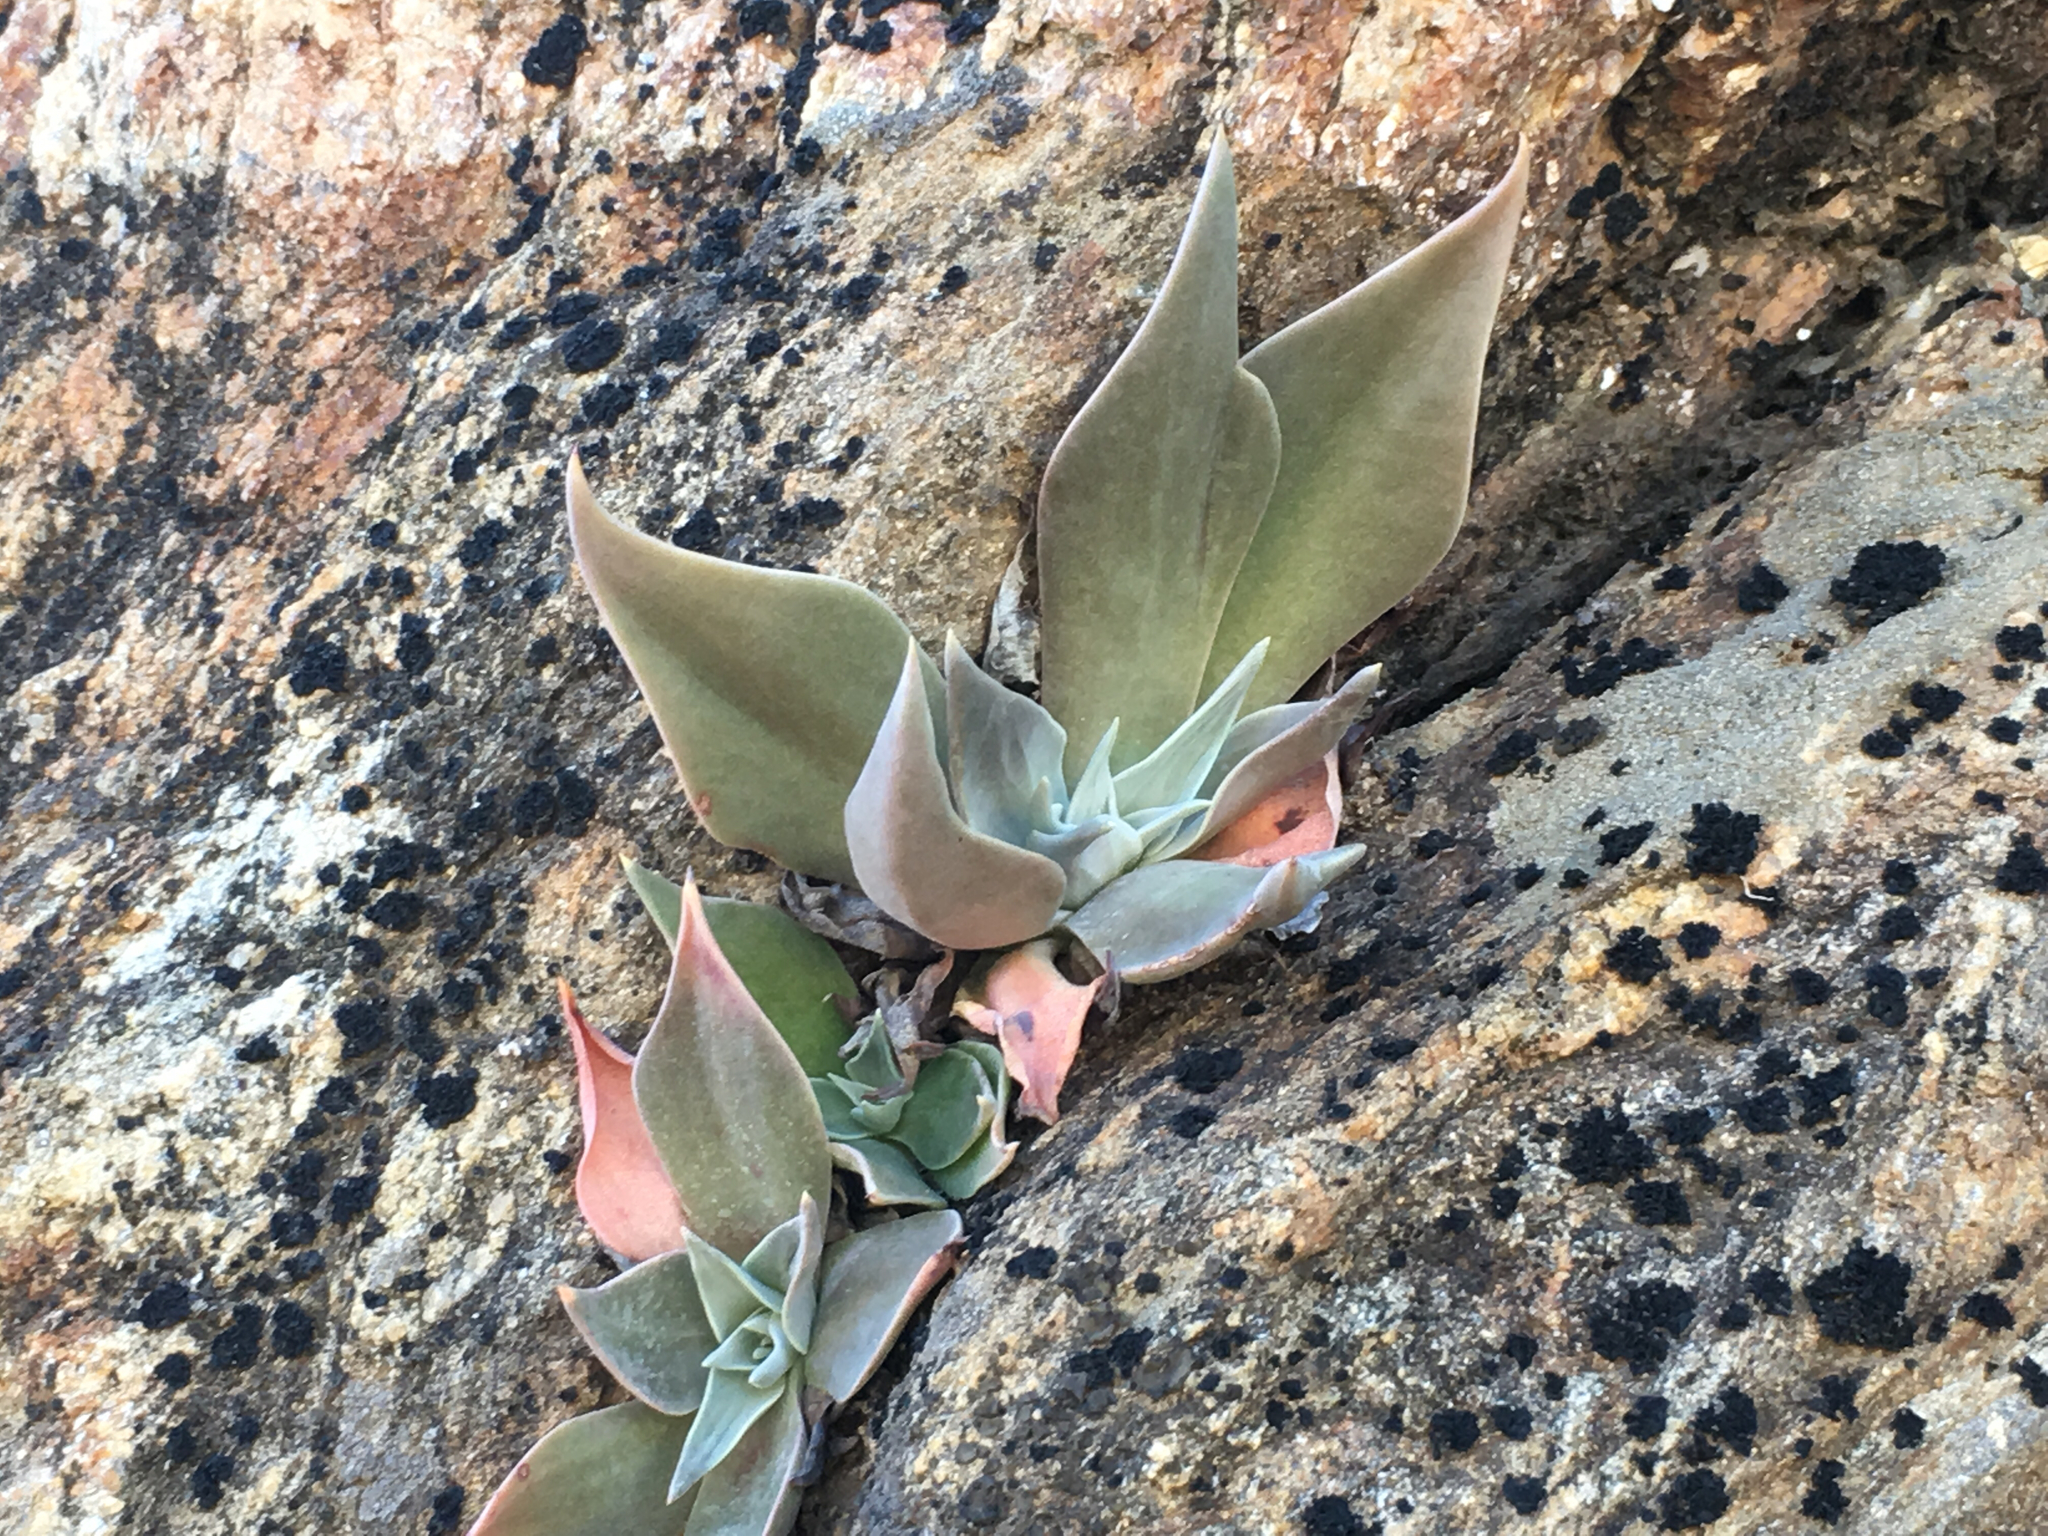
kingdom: Plantae
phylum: Tracheophyta
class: Magnoliopsida
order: Saxifragales
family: Crassulaceae
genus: Dudleya
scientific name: Dudleya arizonica
